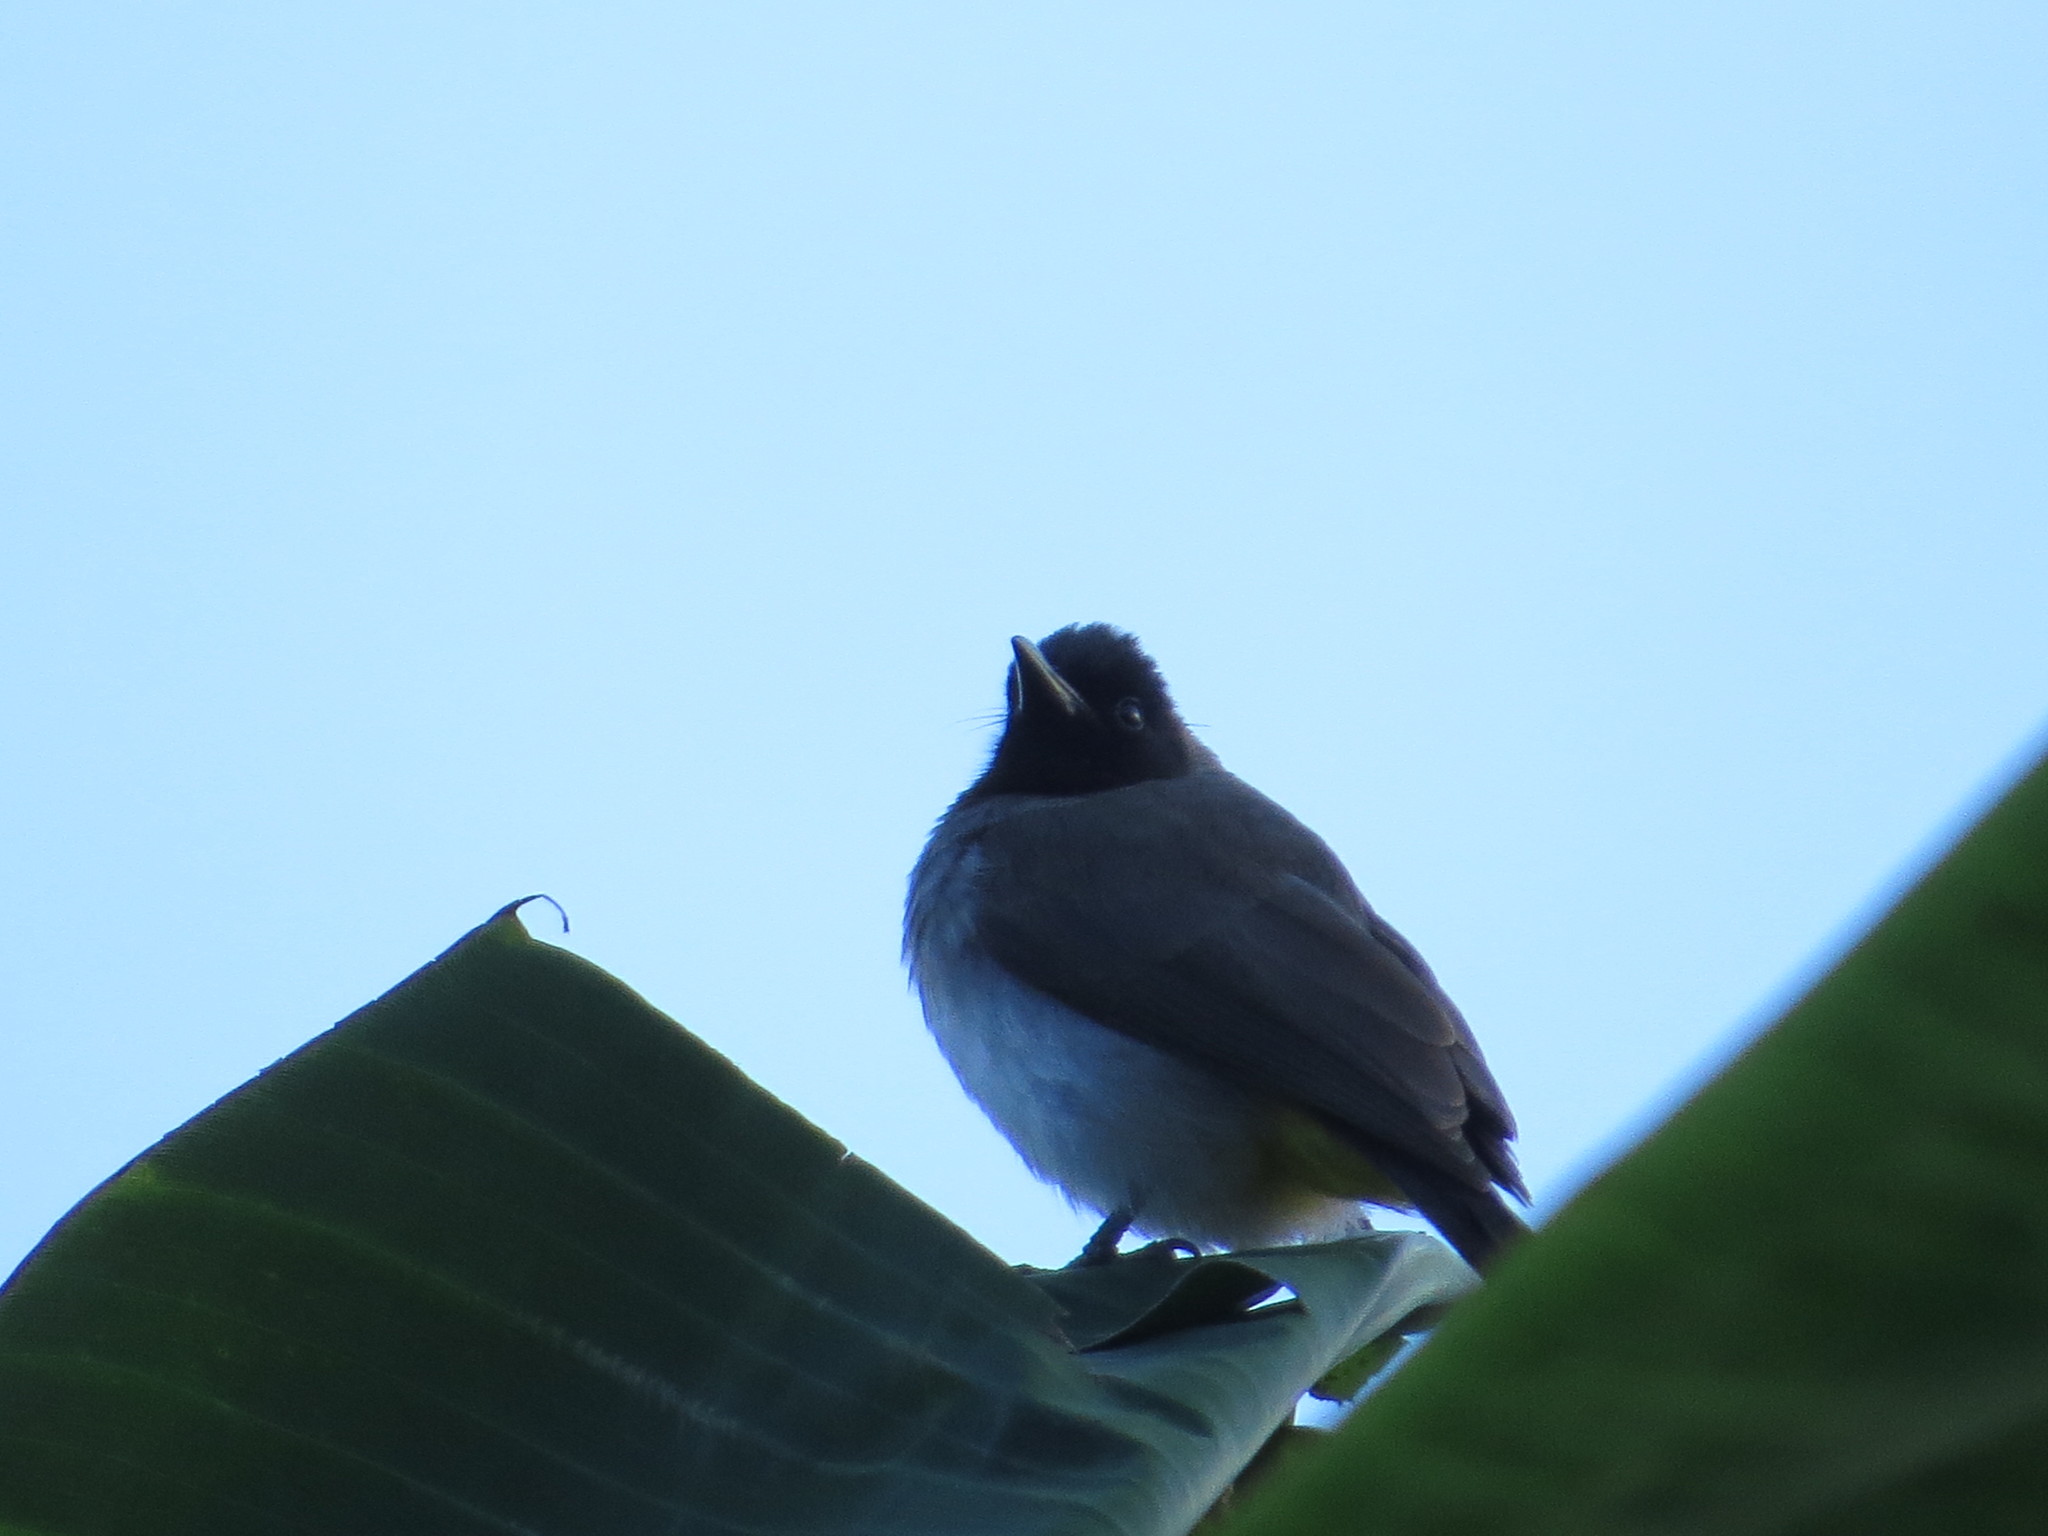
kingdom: Animalia
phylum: Chordata
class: Aves
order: Passeriformes
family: Pycnonotidae
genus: Pycnonotus
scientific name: Pycnonotus barbatus
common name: Common bulbul
